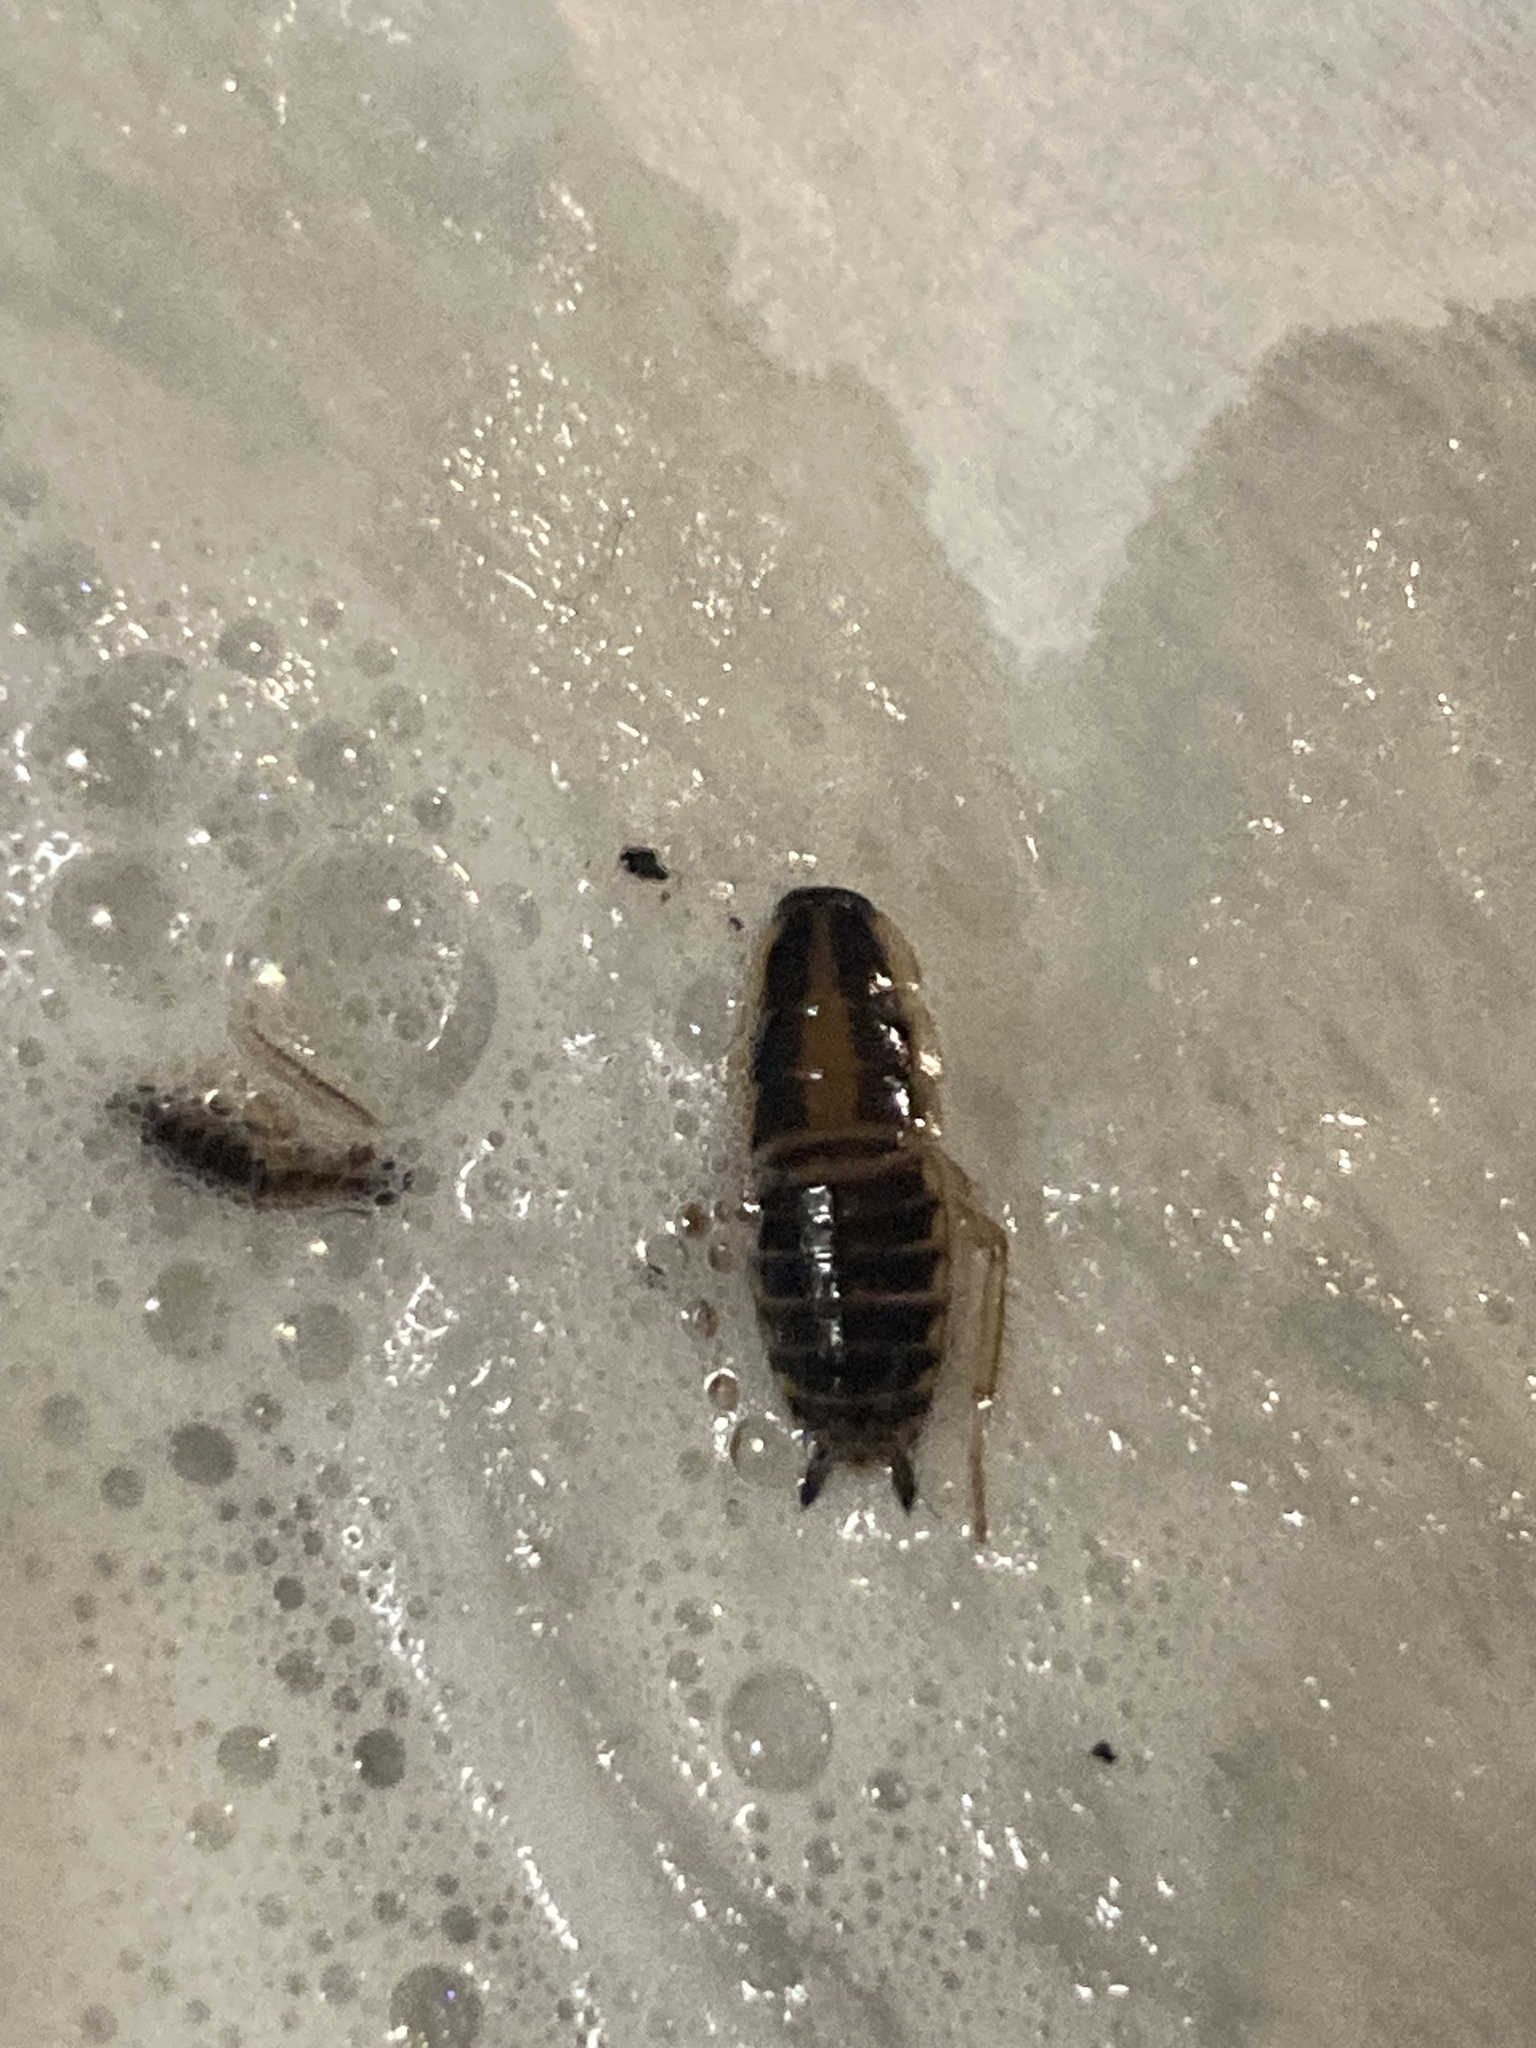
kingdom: Animalia
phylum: Arthropoda
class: Insecta
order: Blattodea
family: Ectobiidae
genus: Blattella
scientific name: Blattella germanica
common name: German cockroach
